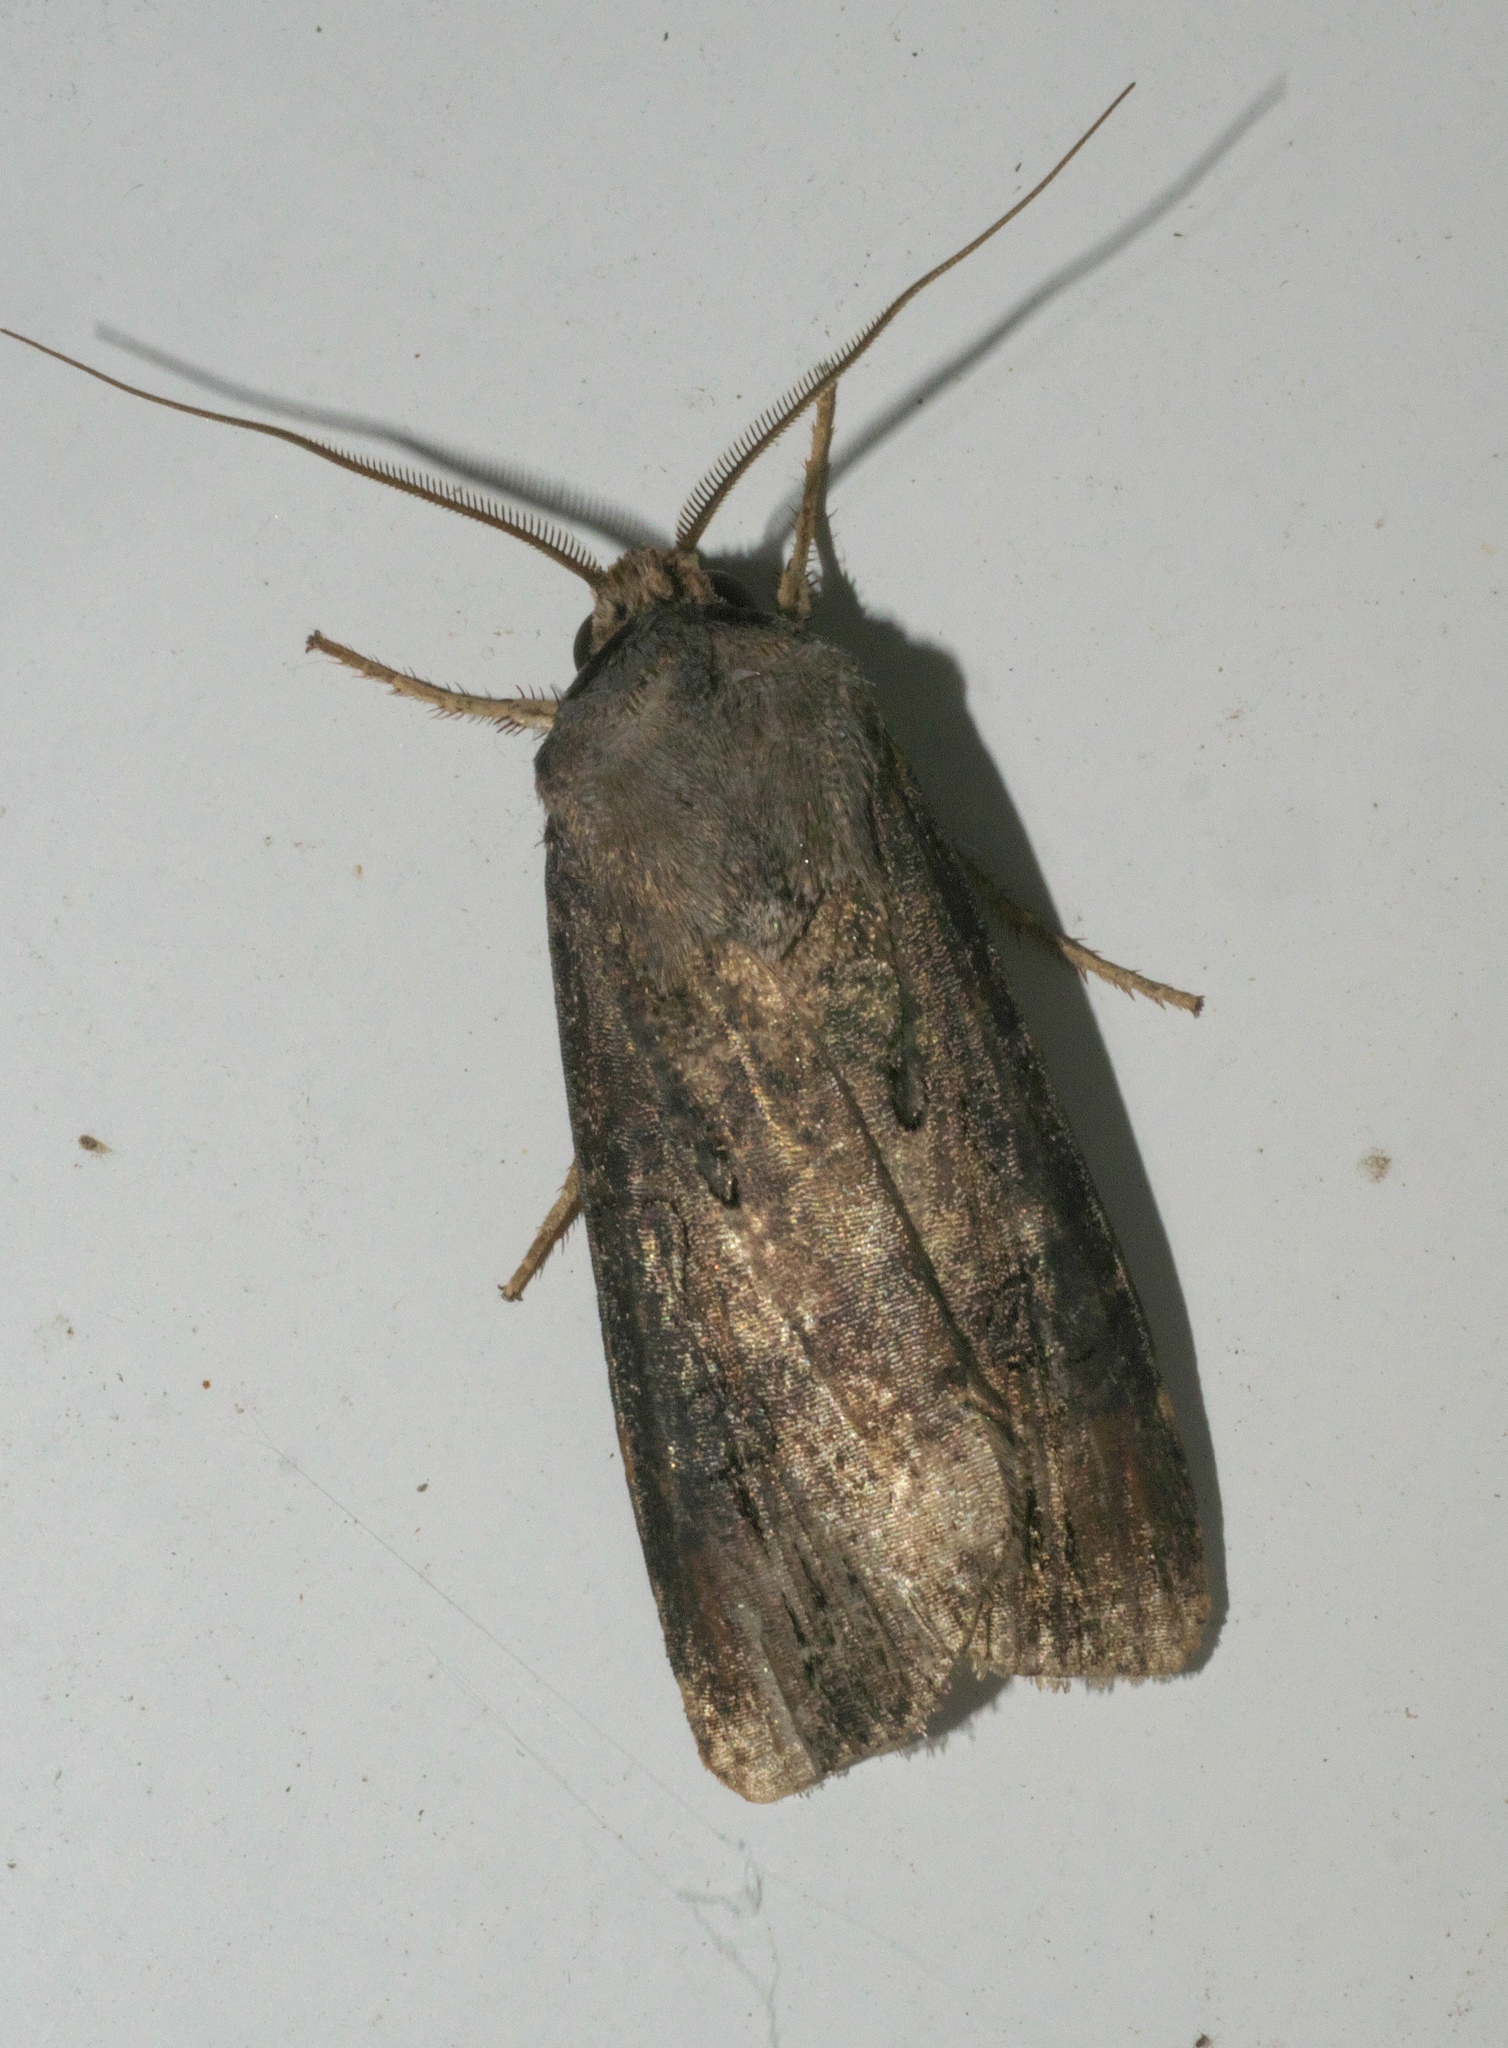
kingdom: Animalia
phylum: Arthropoda
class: Insecta
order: Lepidoptera
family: Noctuidae
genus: Agrotis
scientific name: Agrotis ipsilon
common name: Dark sword-grass
